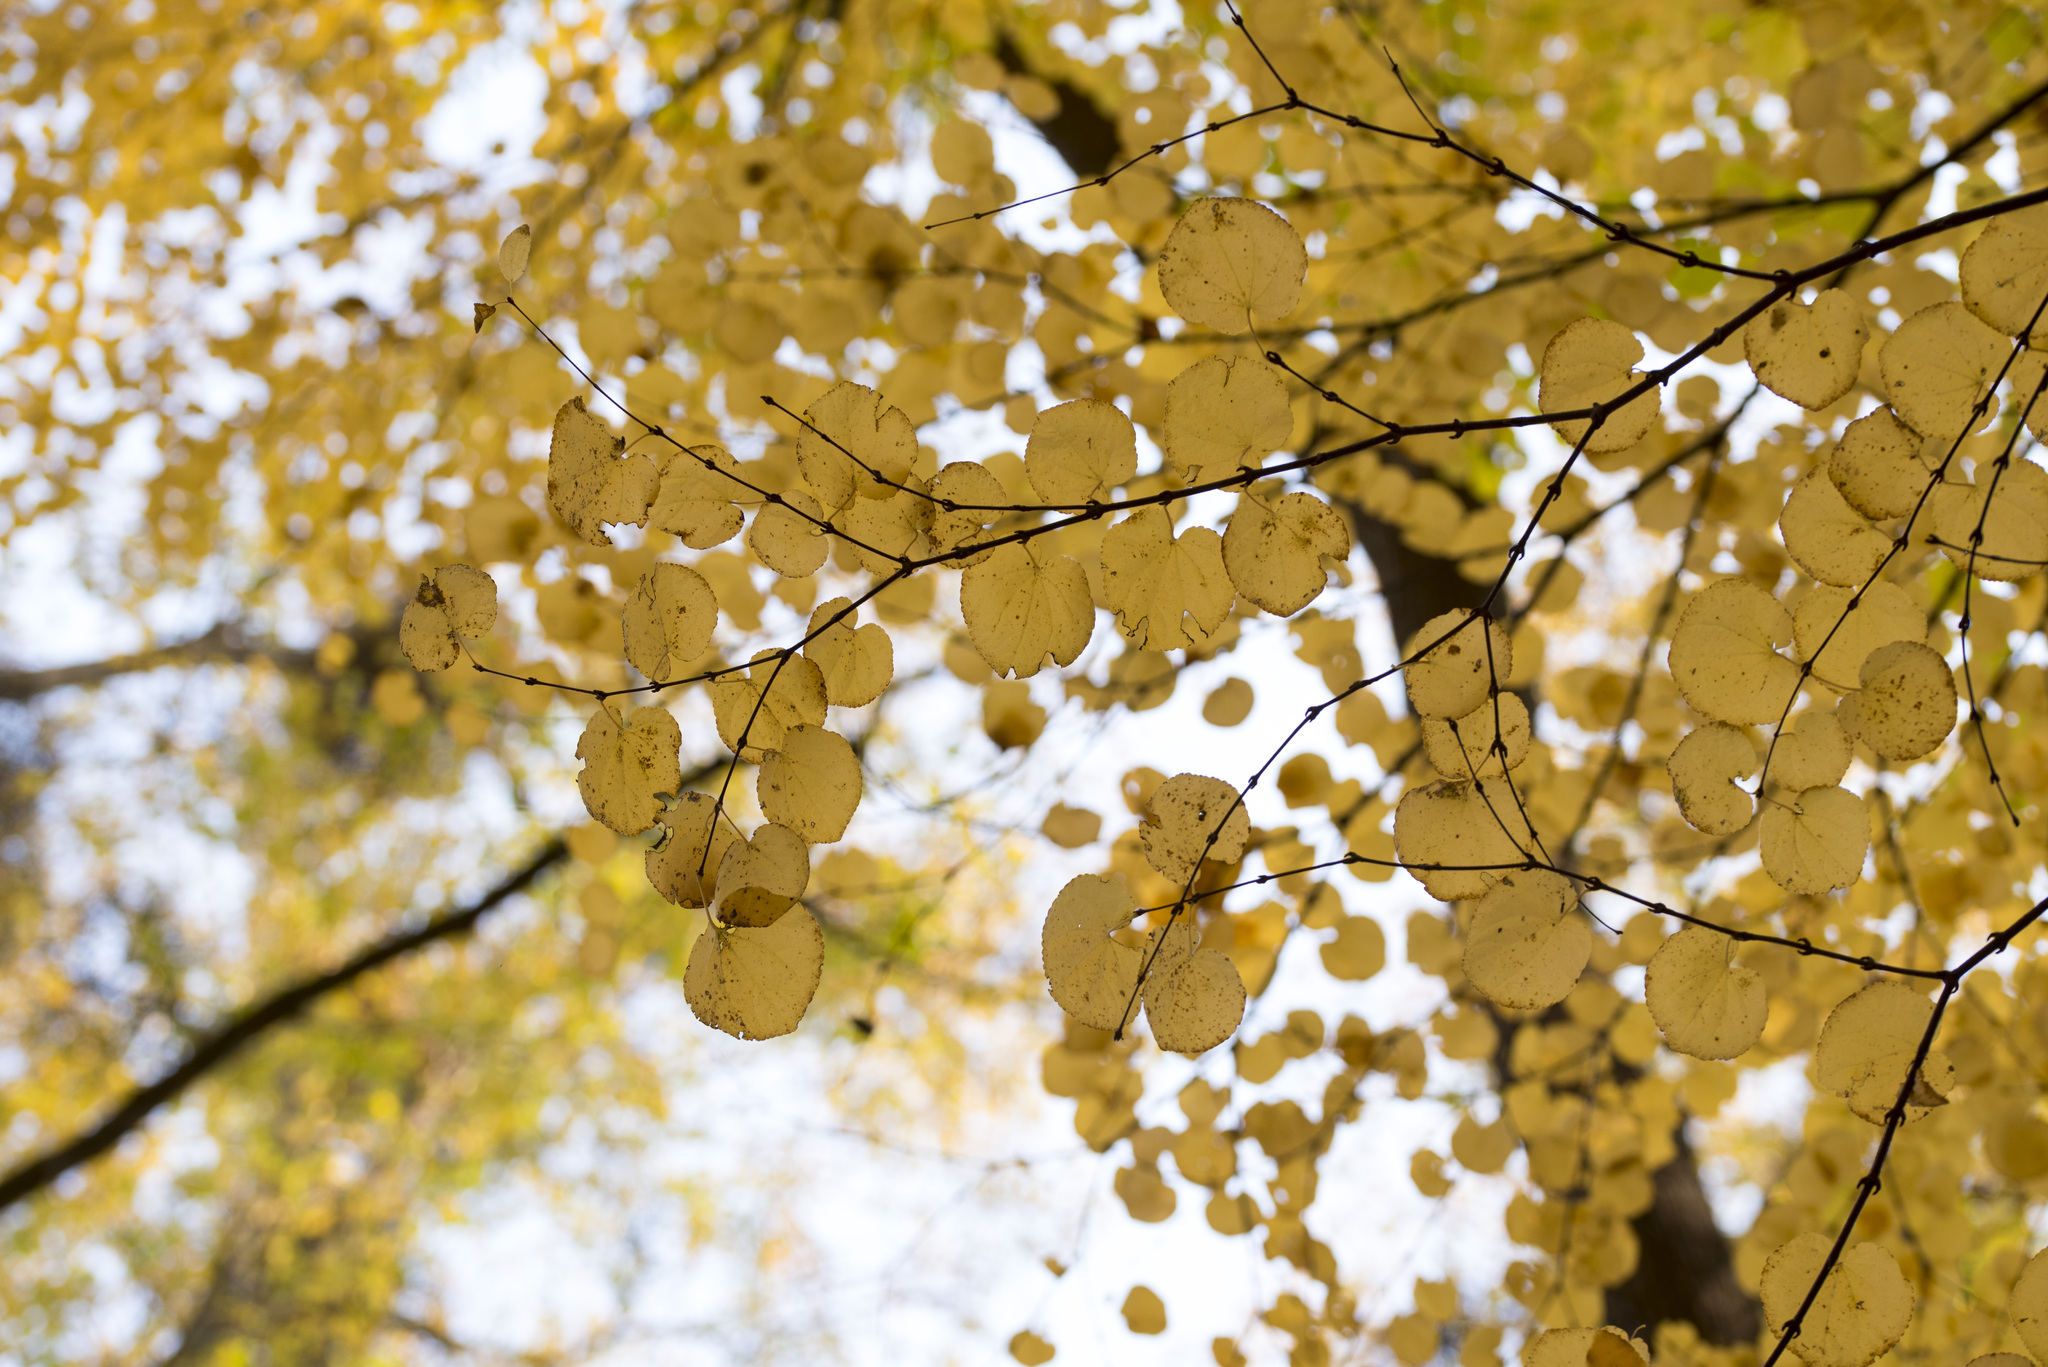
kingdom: Plantae
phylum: Tracheophyta
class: Magnoliopsida
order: Saxifragales
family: Cercidiphyllaceae
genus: Cercidiphyllum
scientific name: Cercidiphyllum japonicum
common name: Katsura tree
